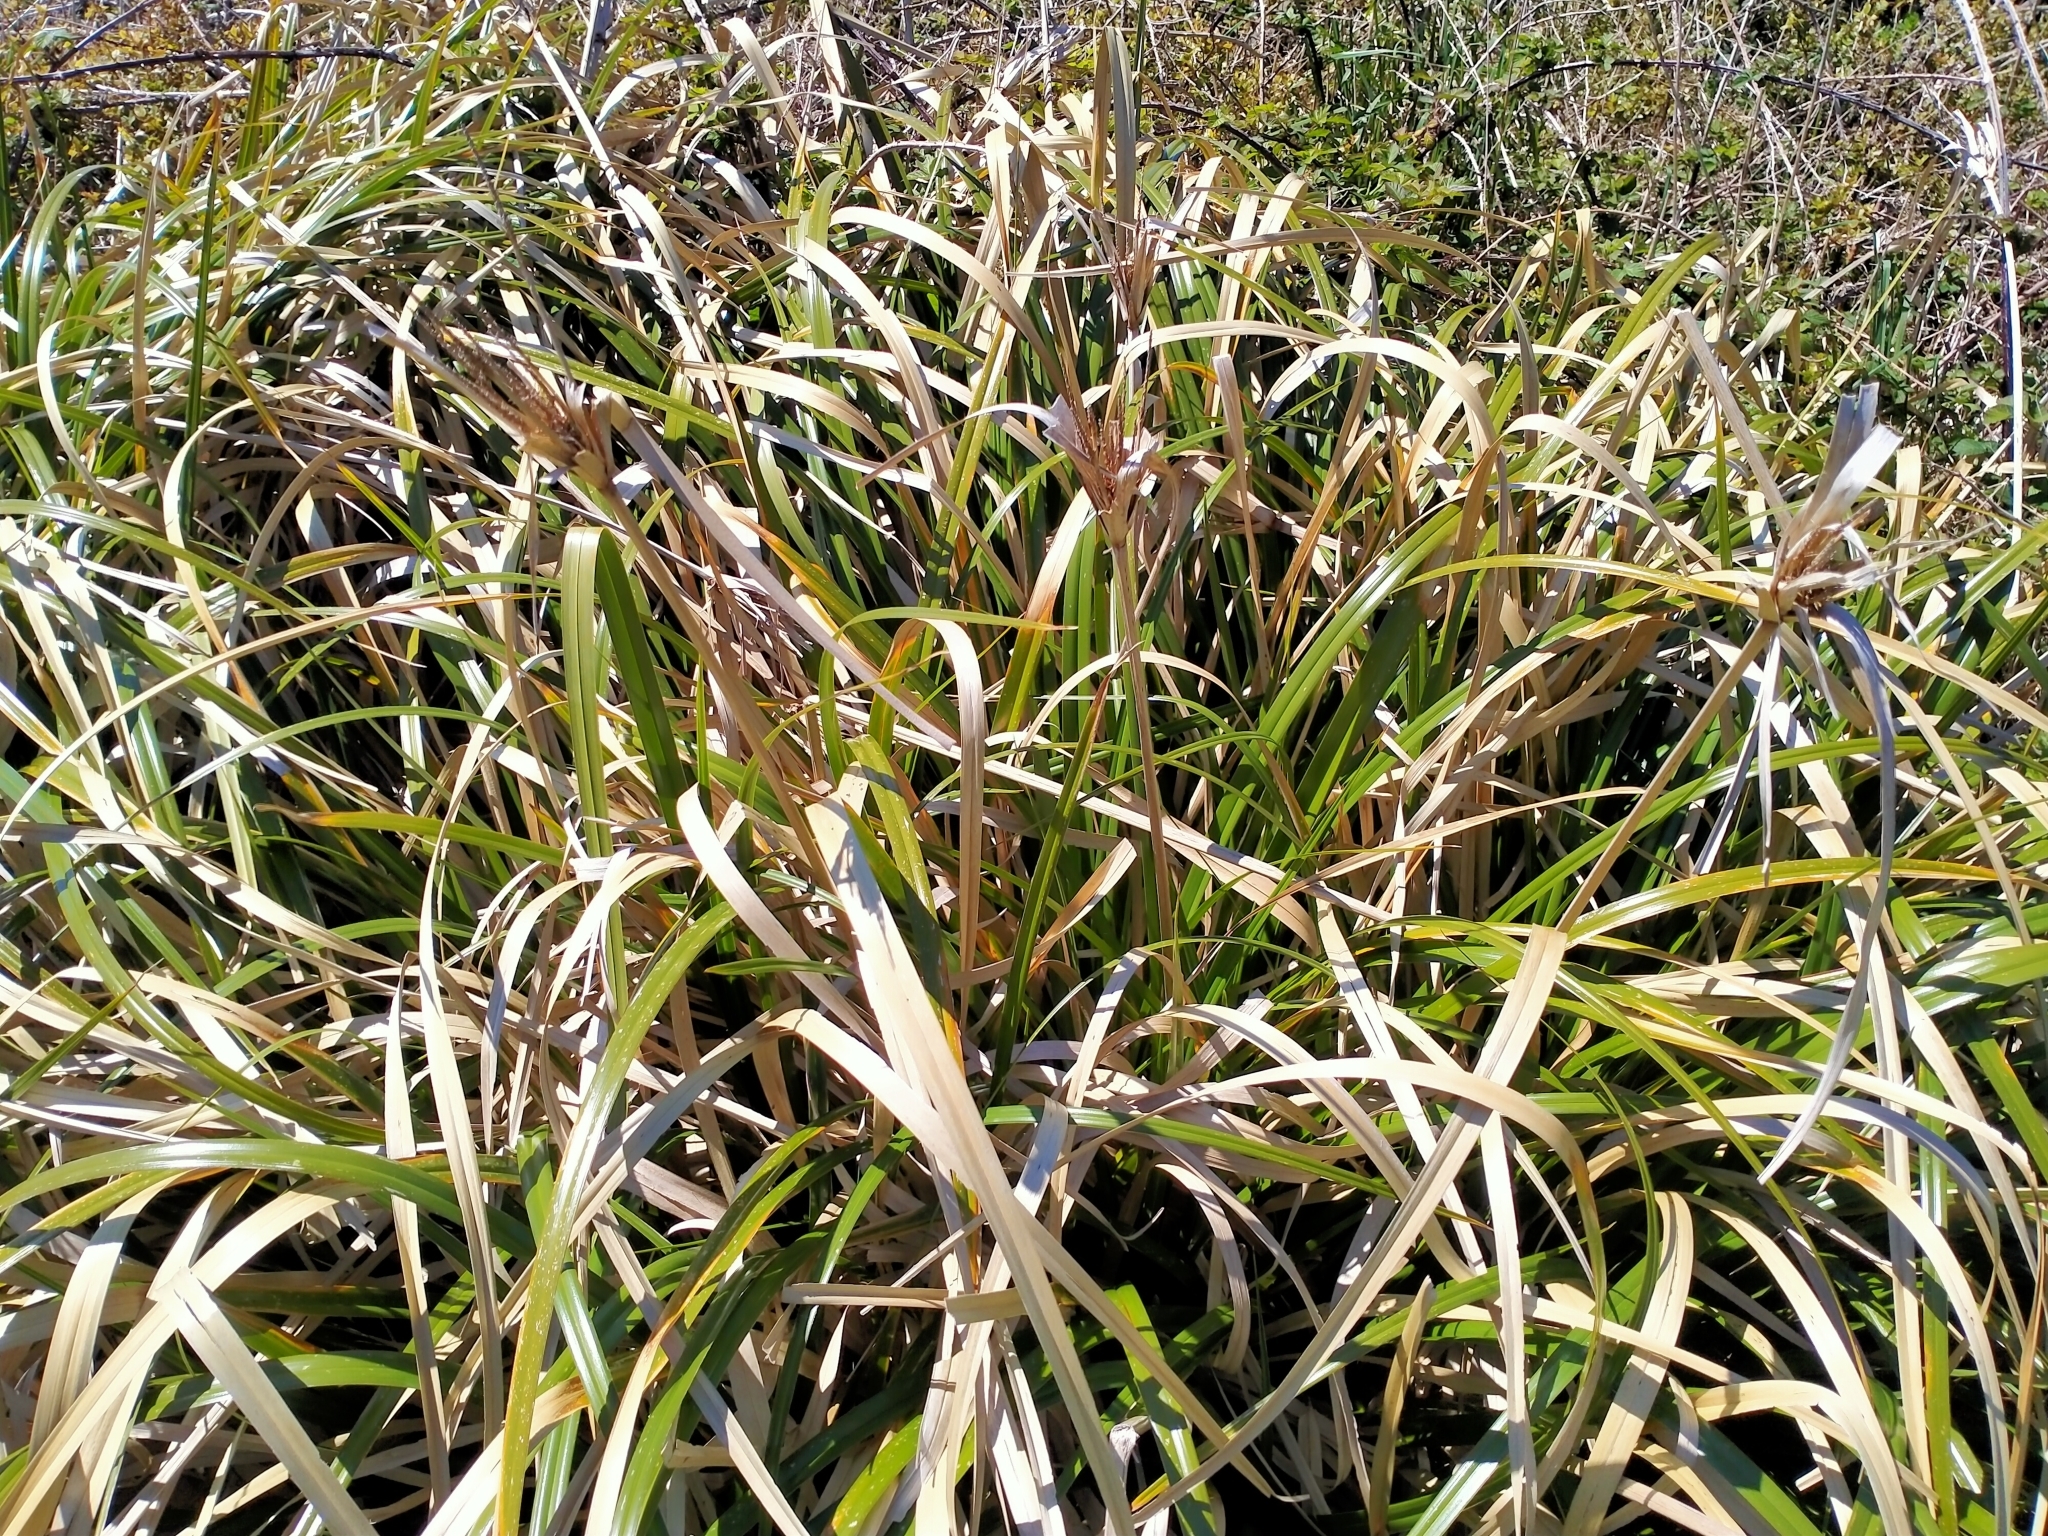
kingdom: Plantae
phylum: Tracheophyta
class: Liliopsida
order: Poales
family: Cyperaceae
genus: Cyperus
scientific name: Cyperus ustulatus
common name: Giant umbrella-sedge
